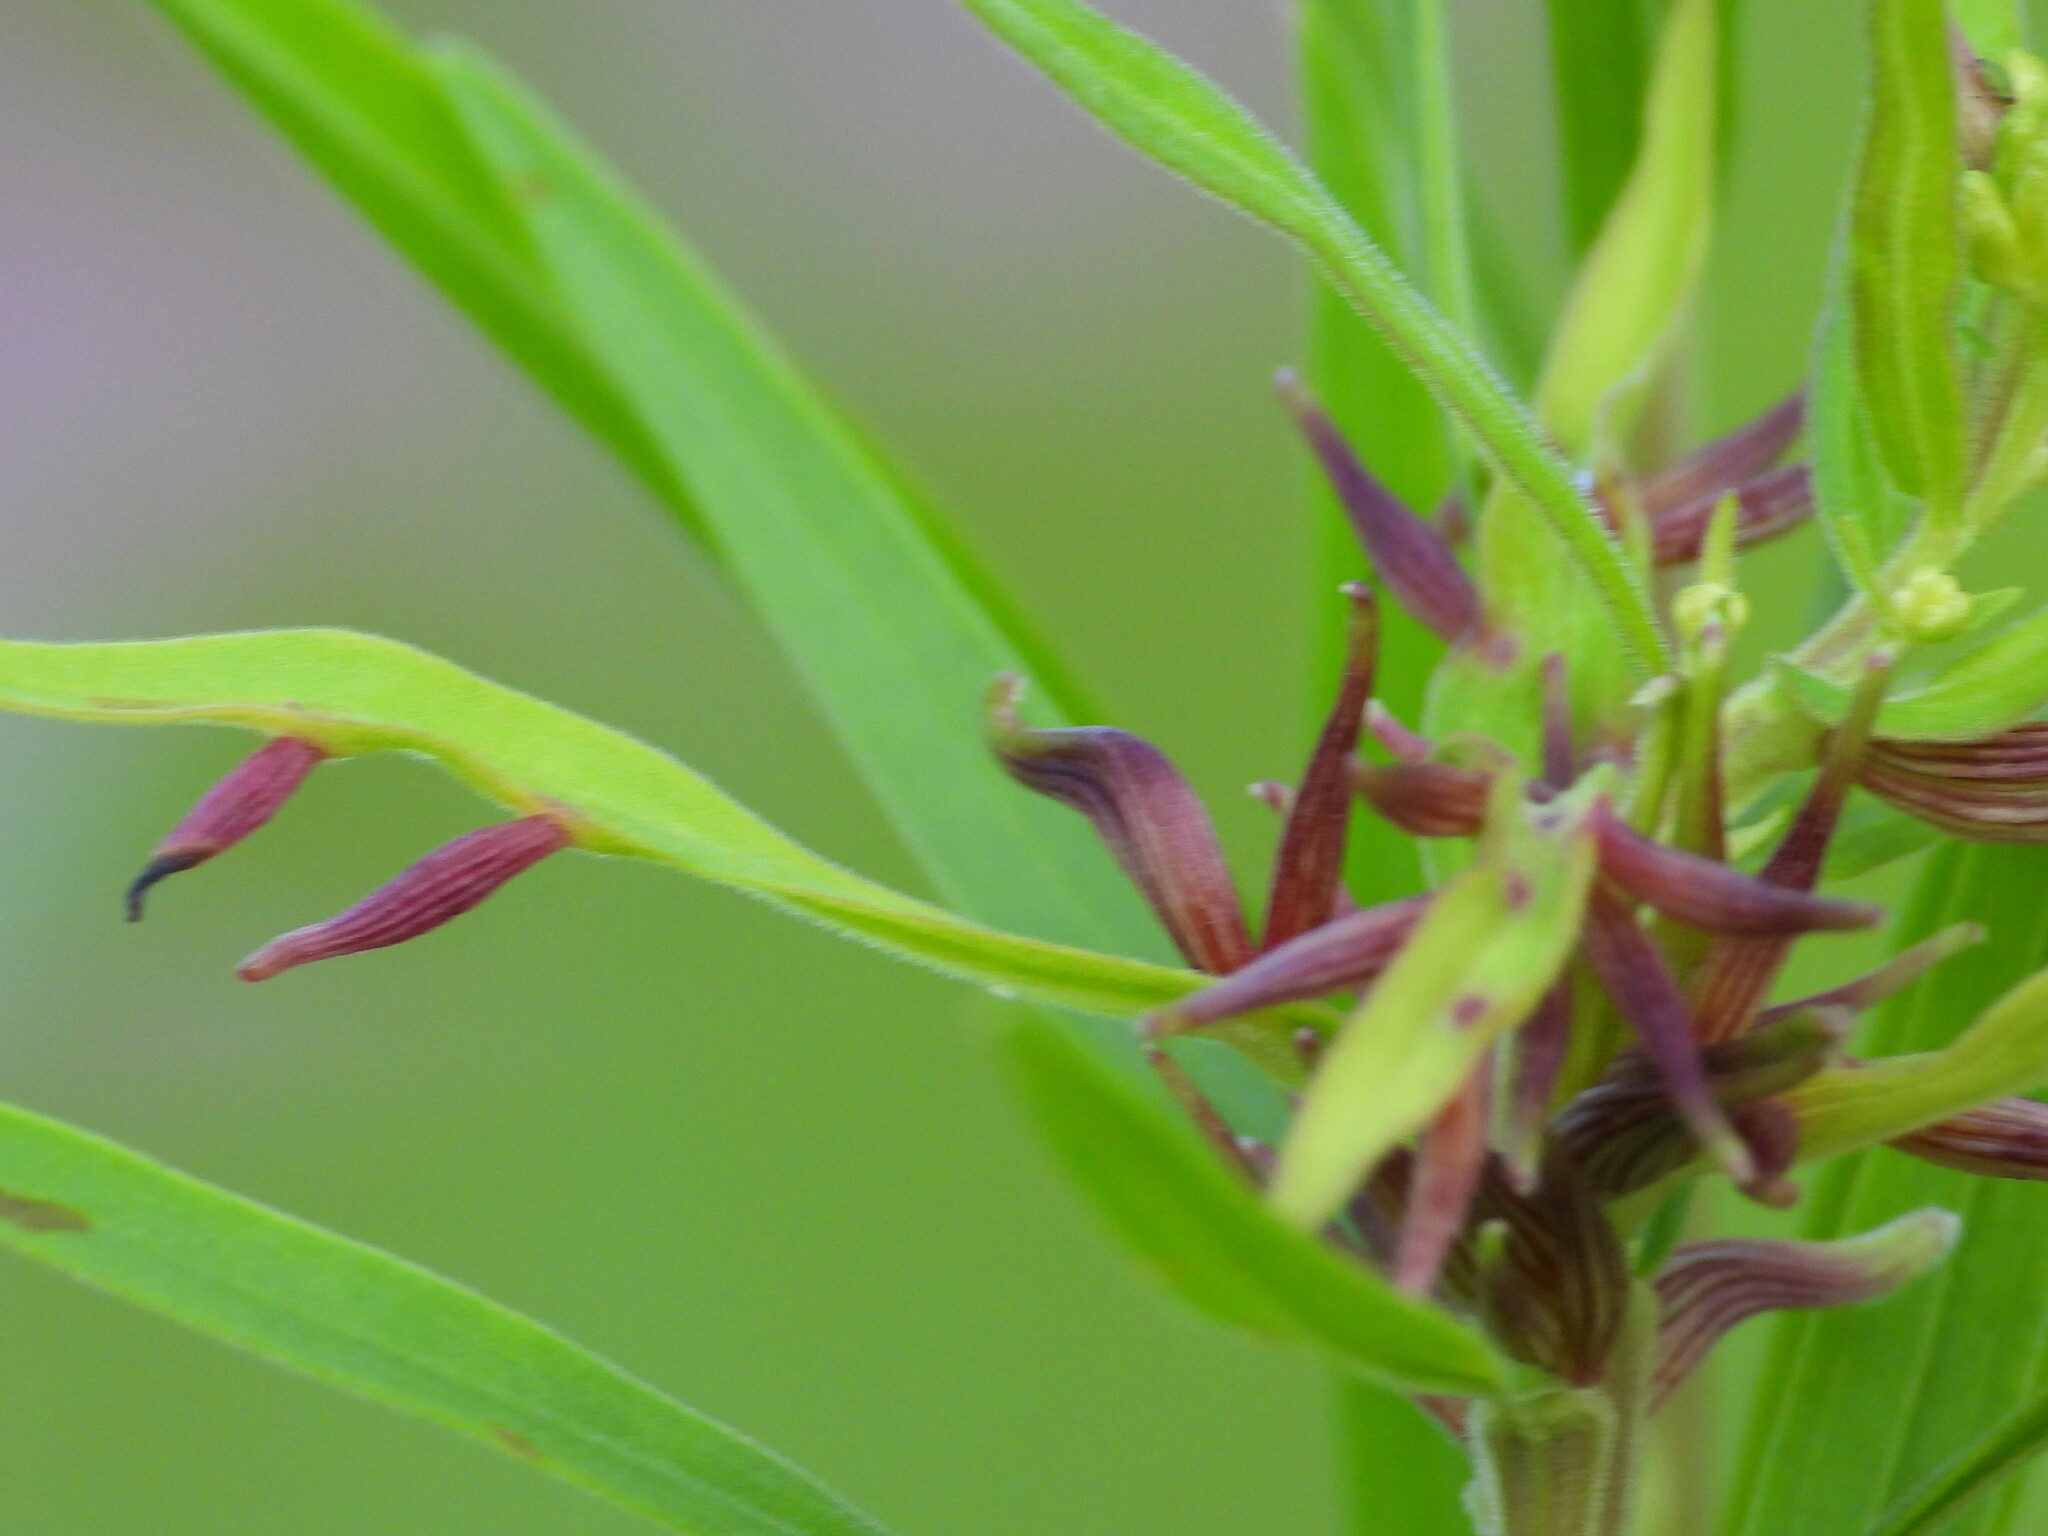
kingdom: Animalia
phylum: Arthropoda
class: Insecta
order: Diptera
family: Cecidomyiidae
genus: Rhopalomyia
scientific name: Rhopalomyia fusiformae
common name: Goldentop sessile gall midge
